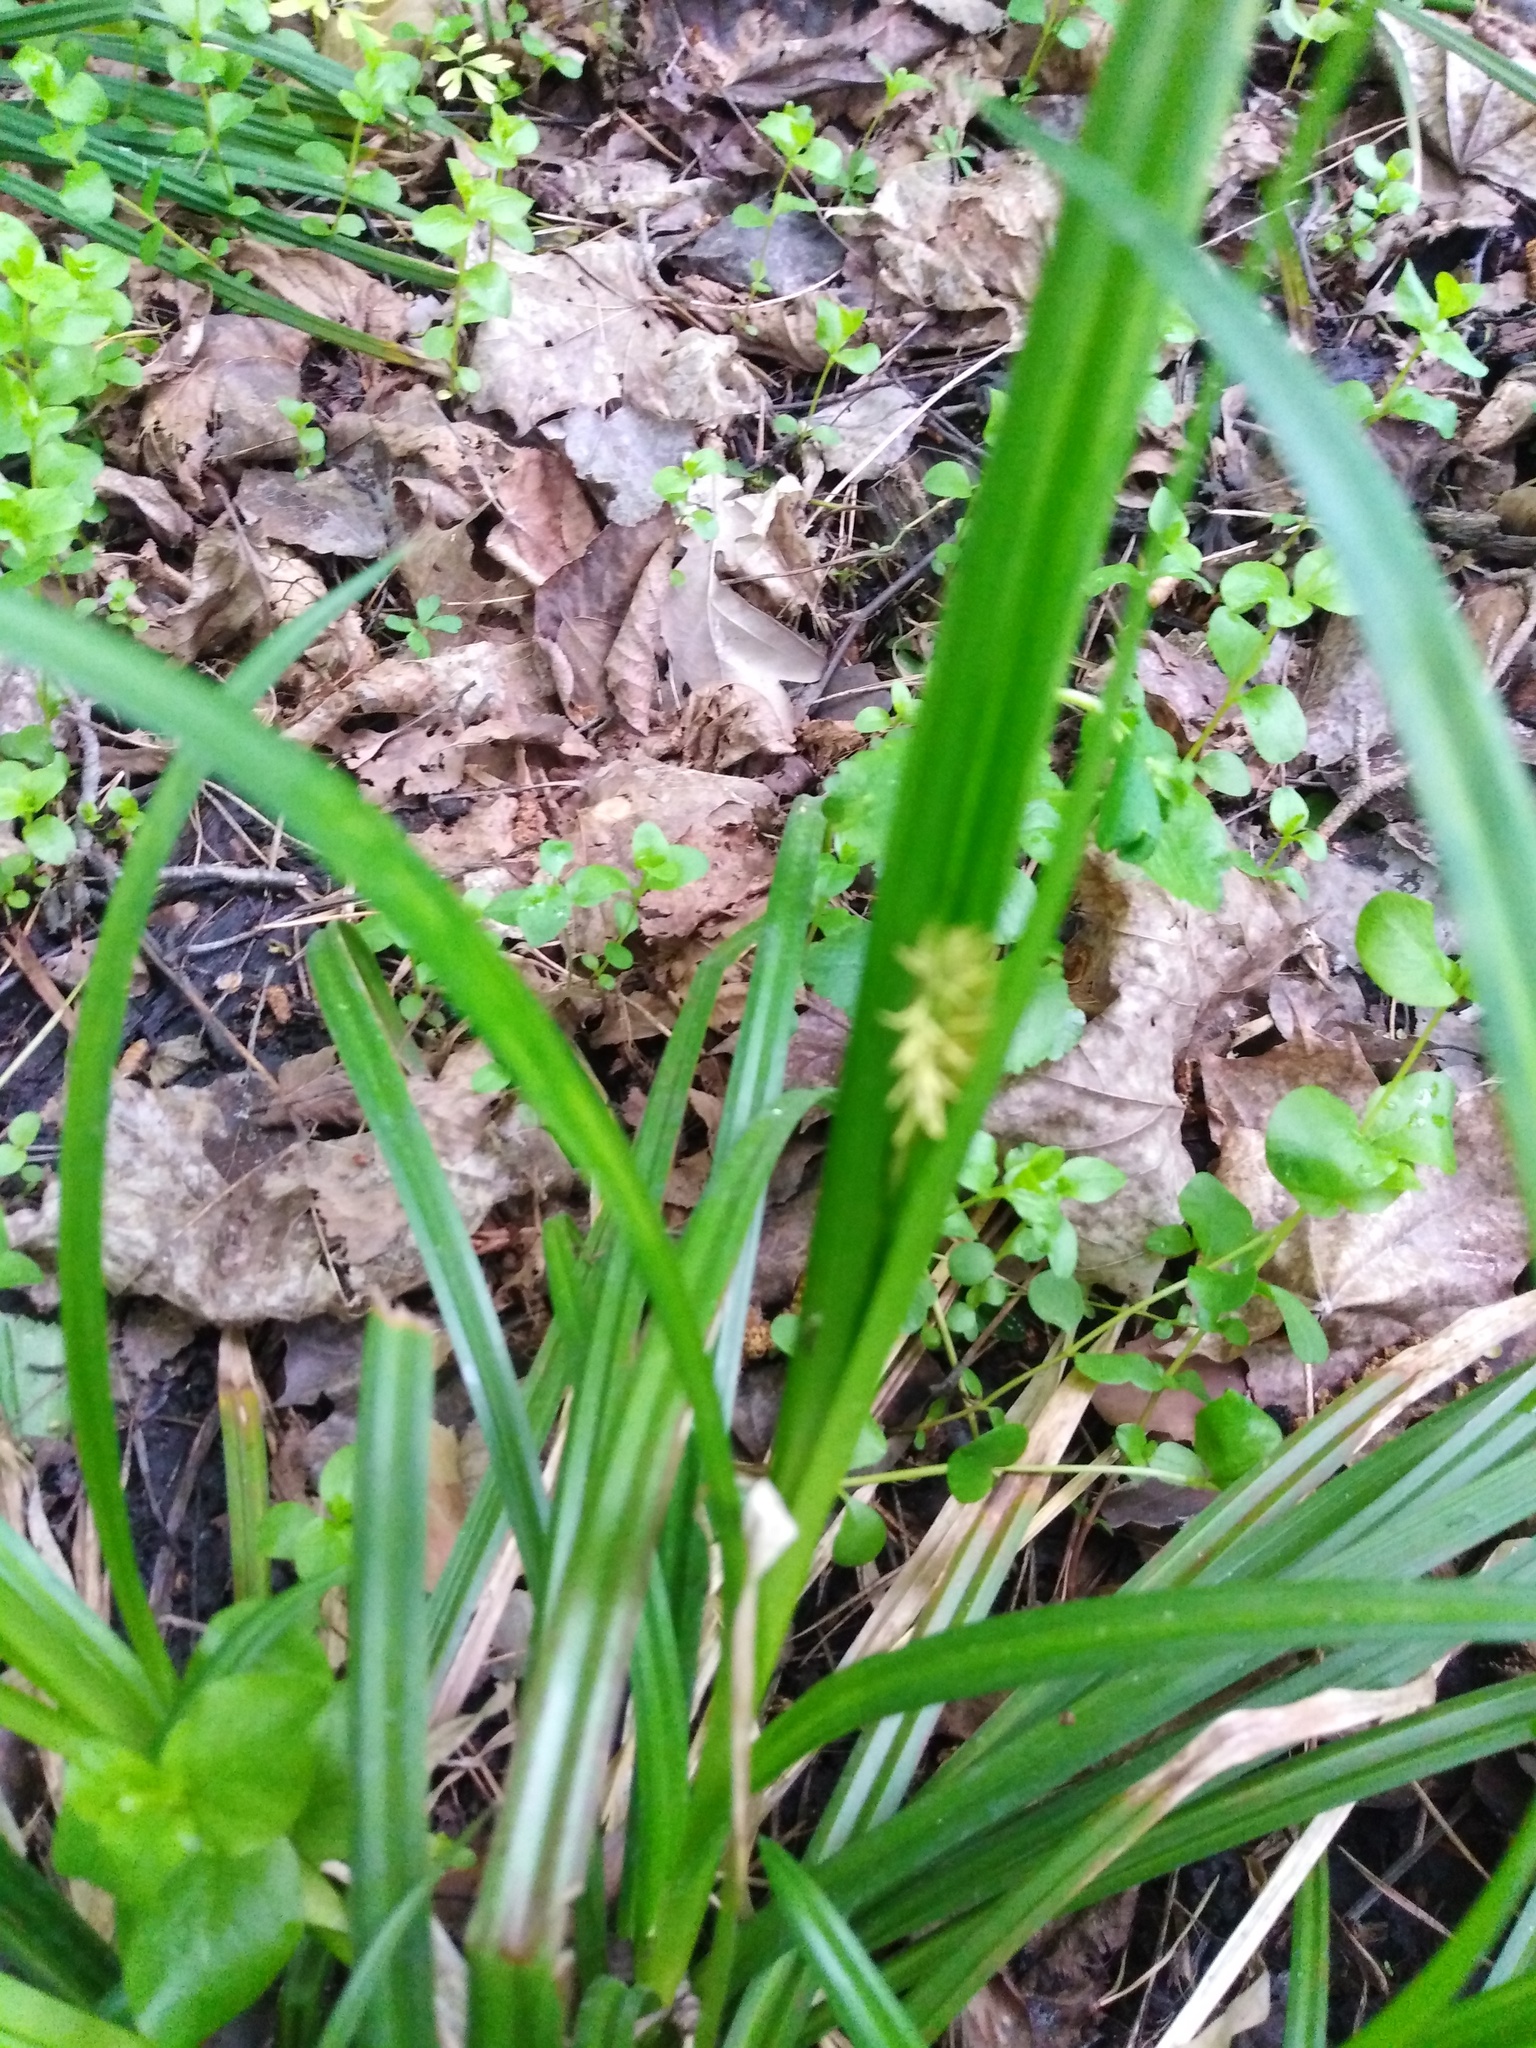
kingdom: Plantae
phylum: Tracheophyta
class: Liliopsida
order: Poales
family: Cyperaceae
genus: Carex
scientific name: Carex sylvatica
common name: Wood-sedge
